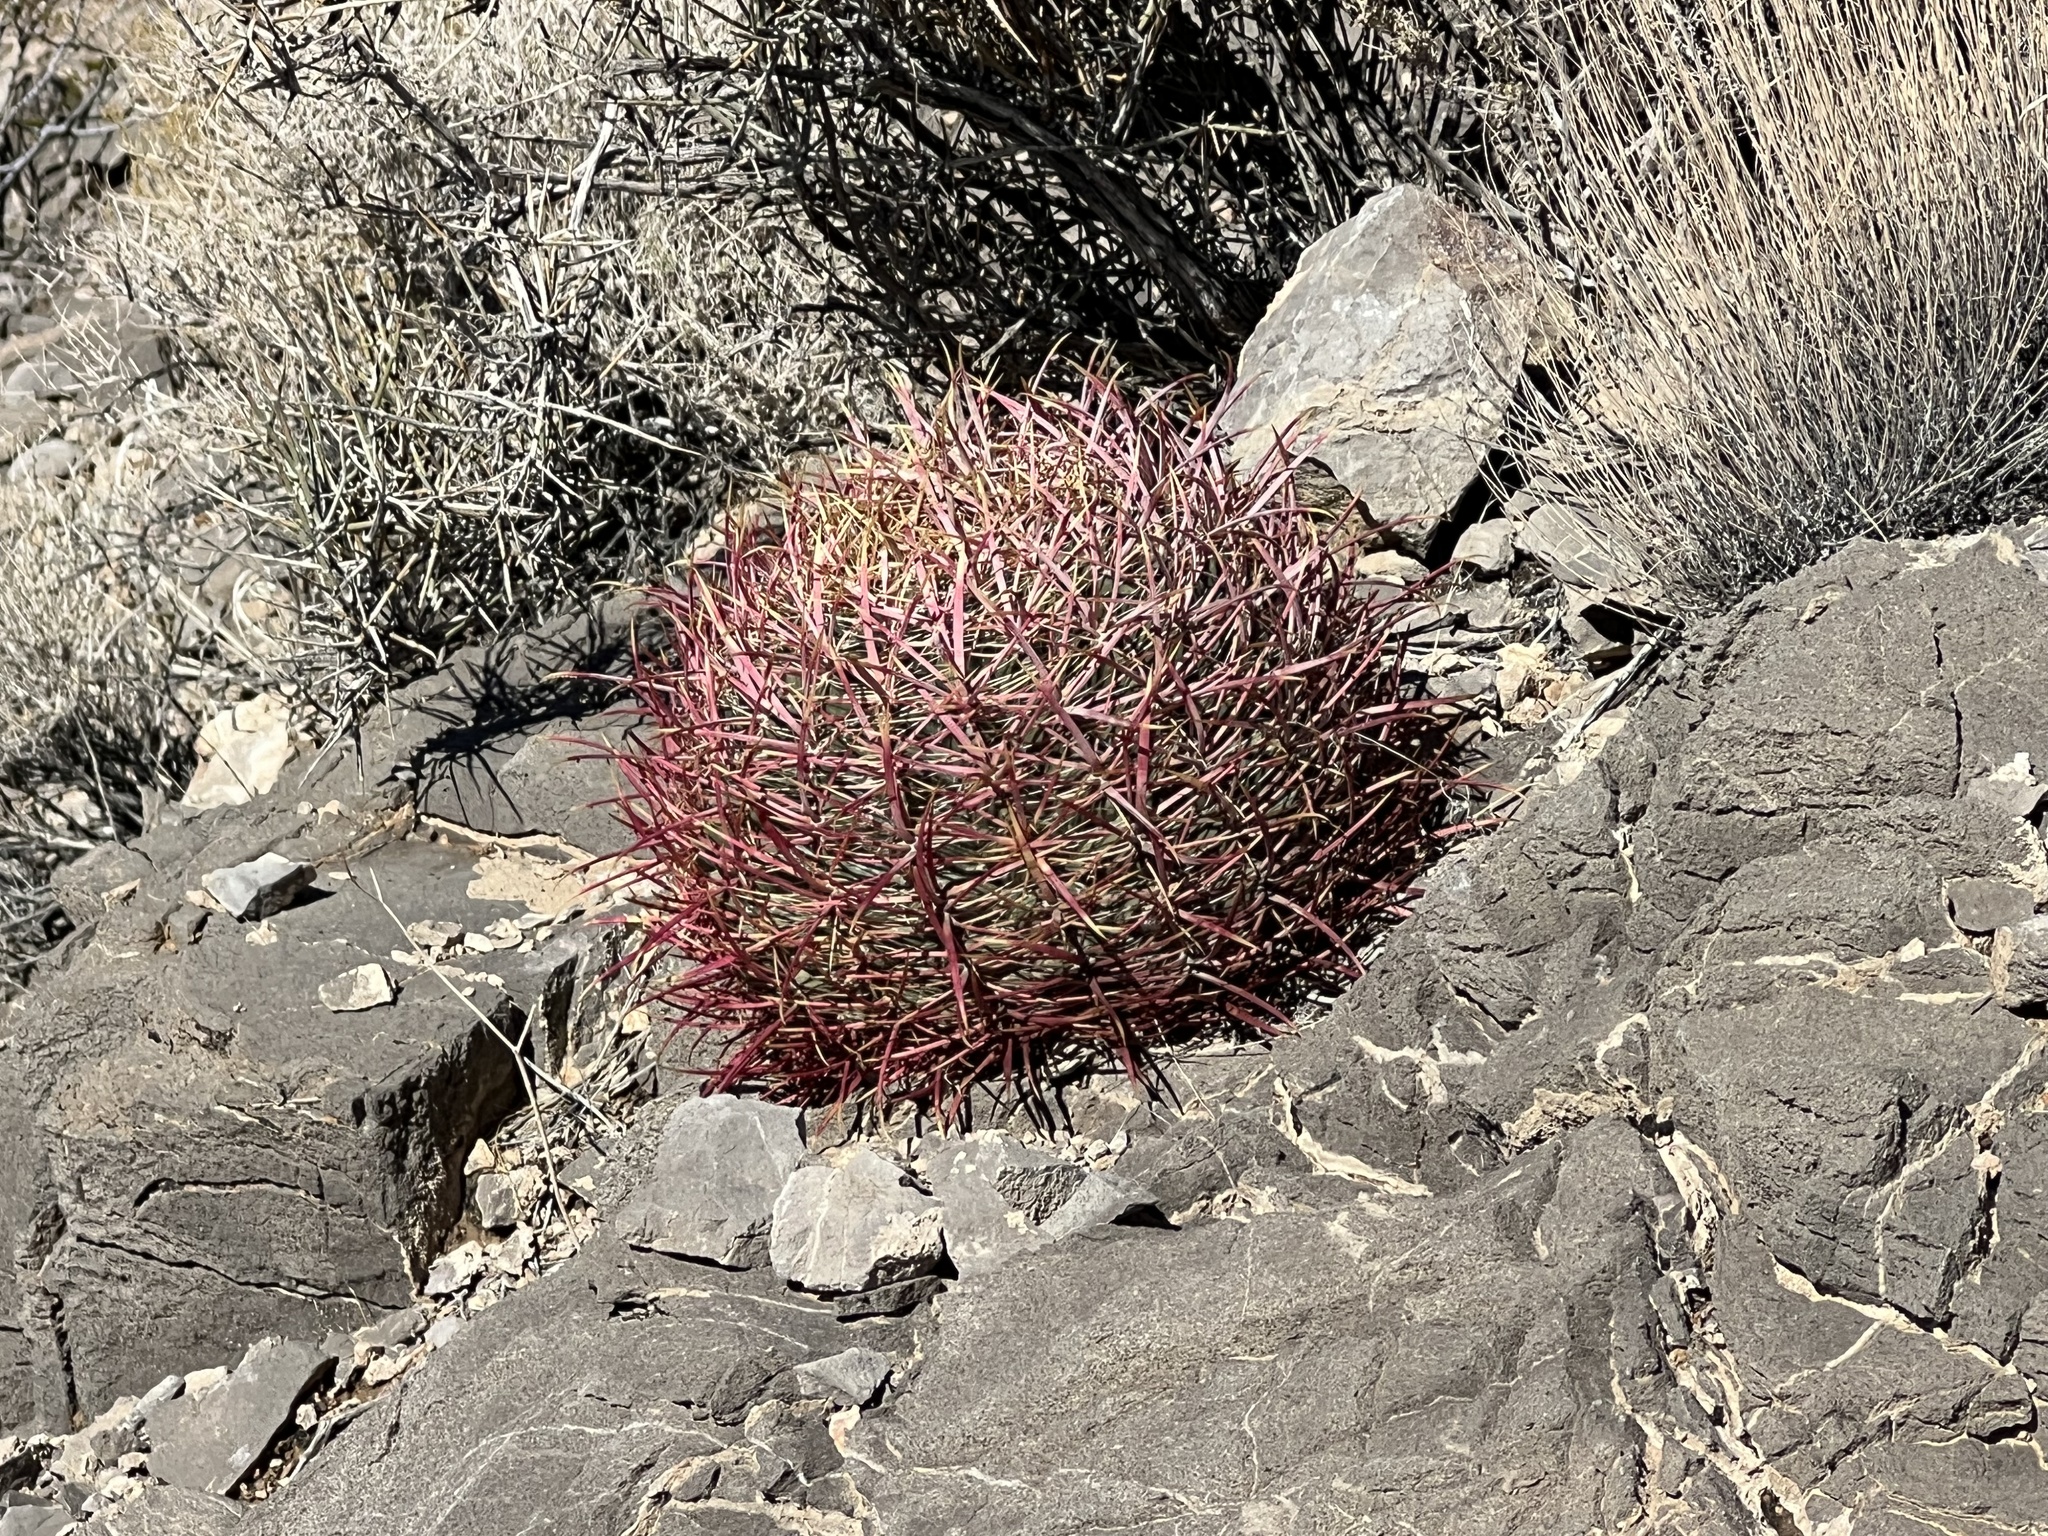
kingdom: Plantae
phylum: Tracheophyta
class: Magnoliopsida
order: Caryophyllales
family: Cactaceae
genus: Ferocactus
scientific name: Ferocactus cylindraceus
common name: California barrel cactus
